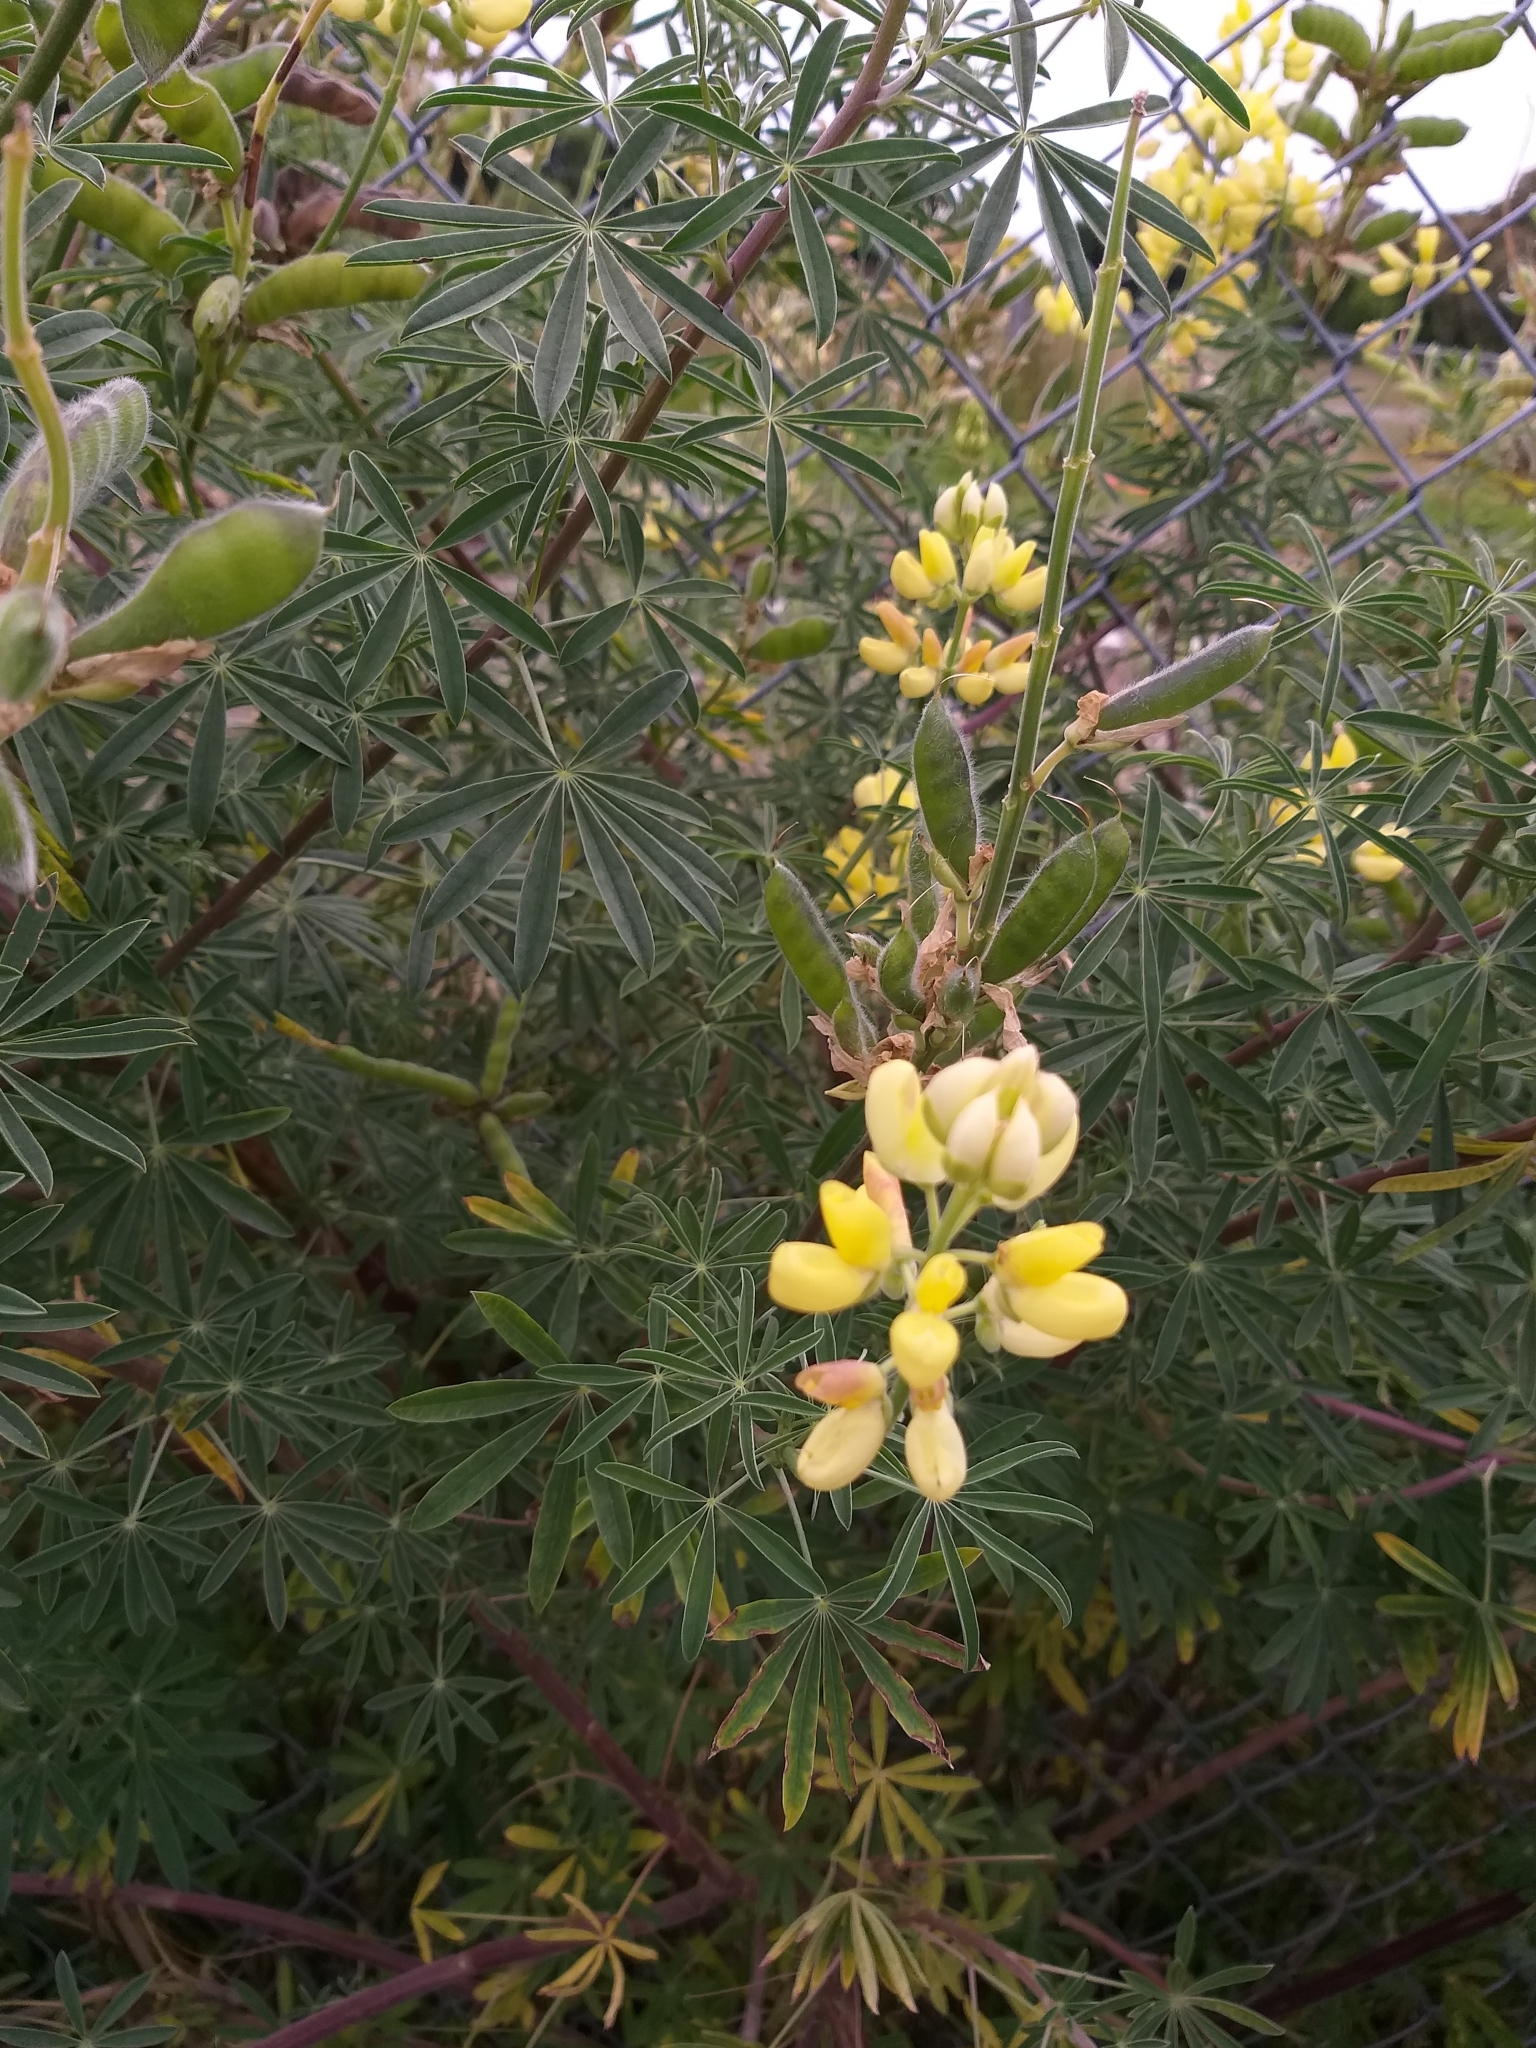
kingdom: Plantae
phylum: Tracheophyta
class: Magnoliopsida
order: Fabales
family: Fabaceae
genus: Lupinus
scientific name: Lupinus arboreus
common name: Yellow bush lupine
